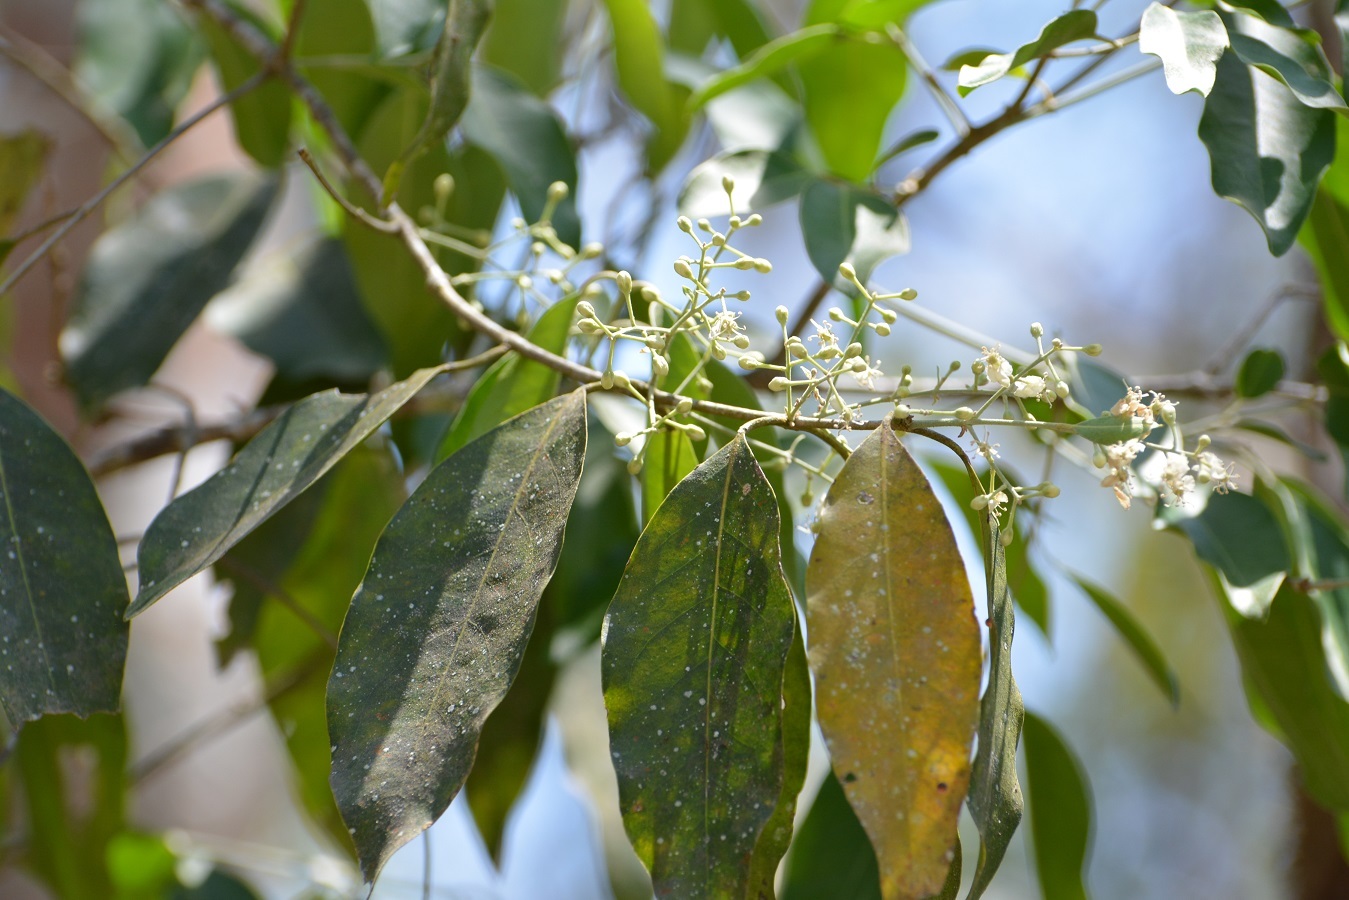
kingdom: Plantae
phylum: Tracheophyta
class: Magnoliopsida
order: Malpighiales
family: Malpighiaceae
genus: Psychopterys
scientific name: Psychopterys multiflora
